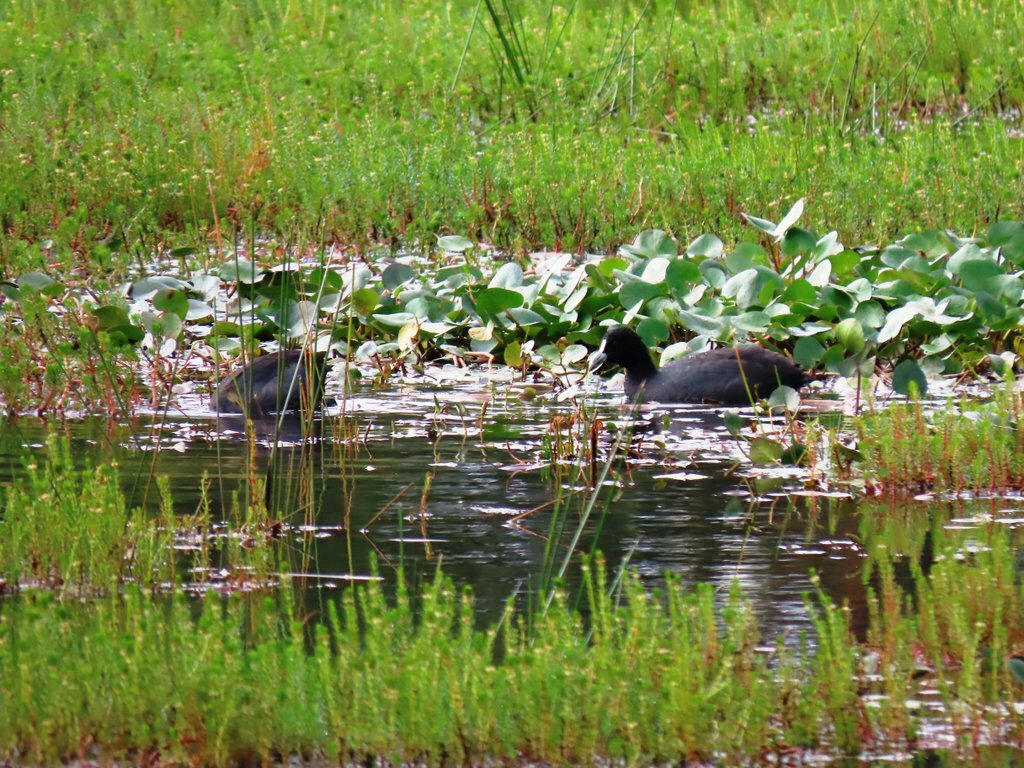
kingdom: Animalia
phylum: Chordata
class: Aves
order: Gruiformes
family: Rallidae
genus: Fulica
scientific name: Fulica atra
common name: Eurasian coot
